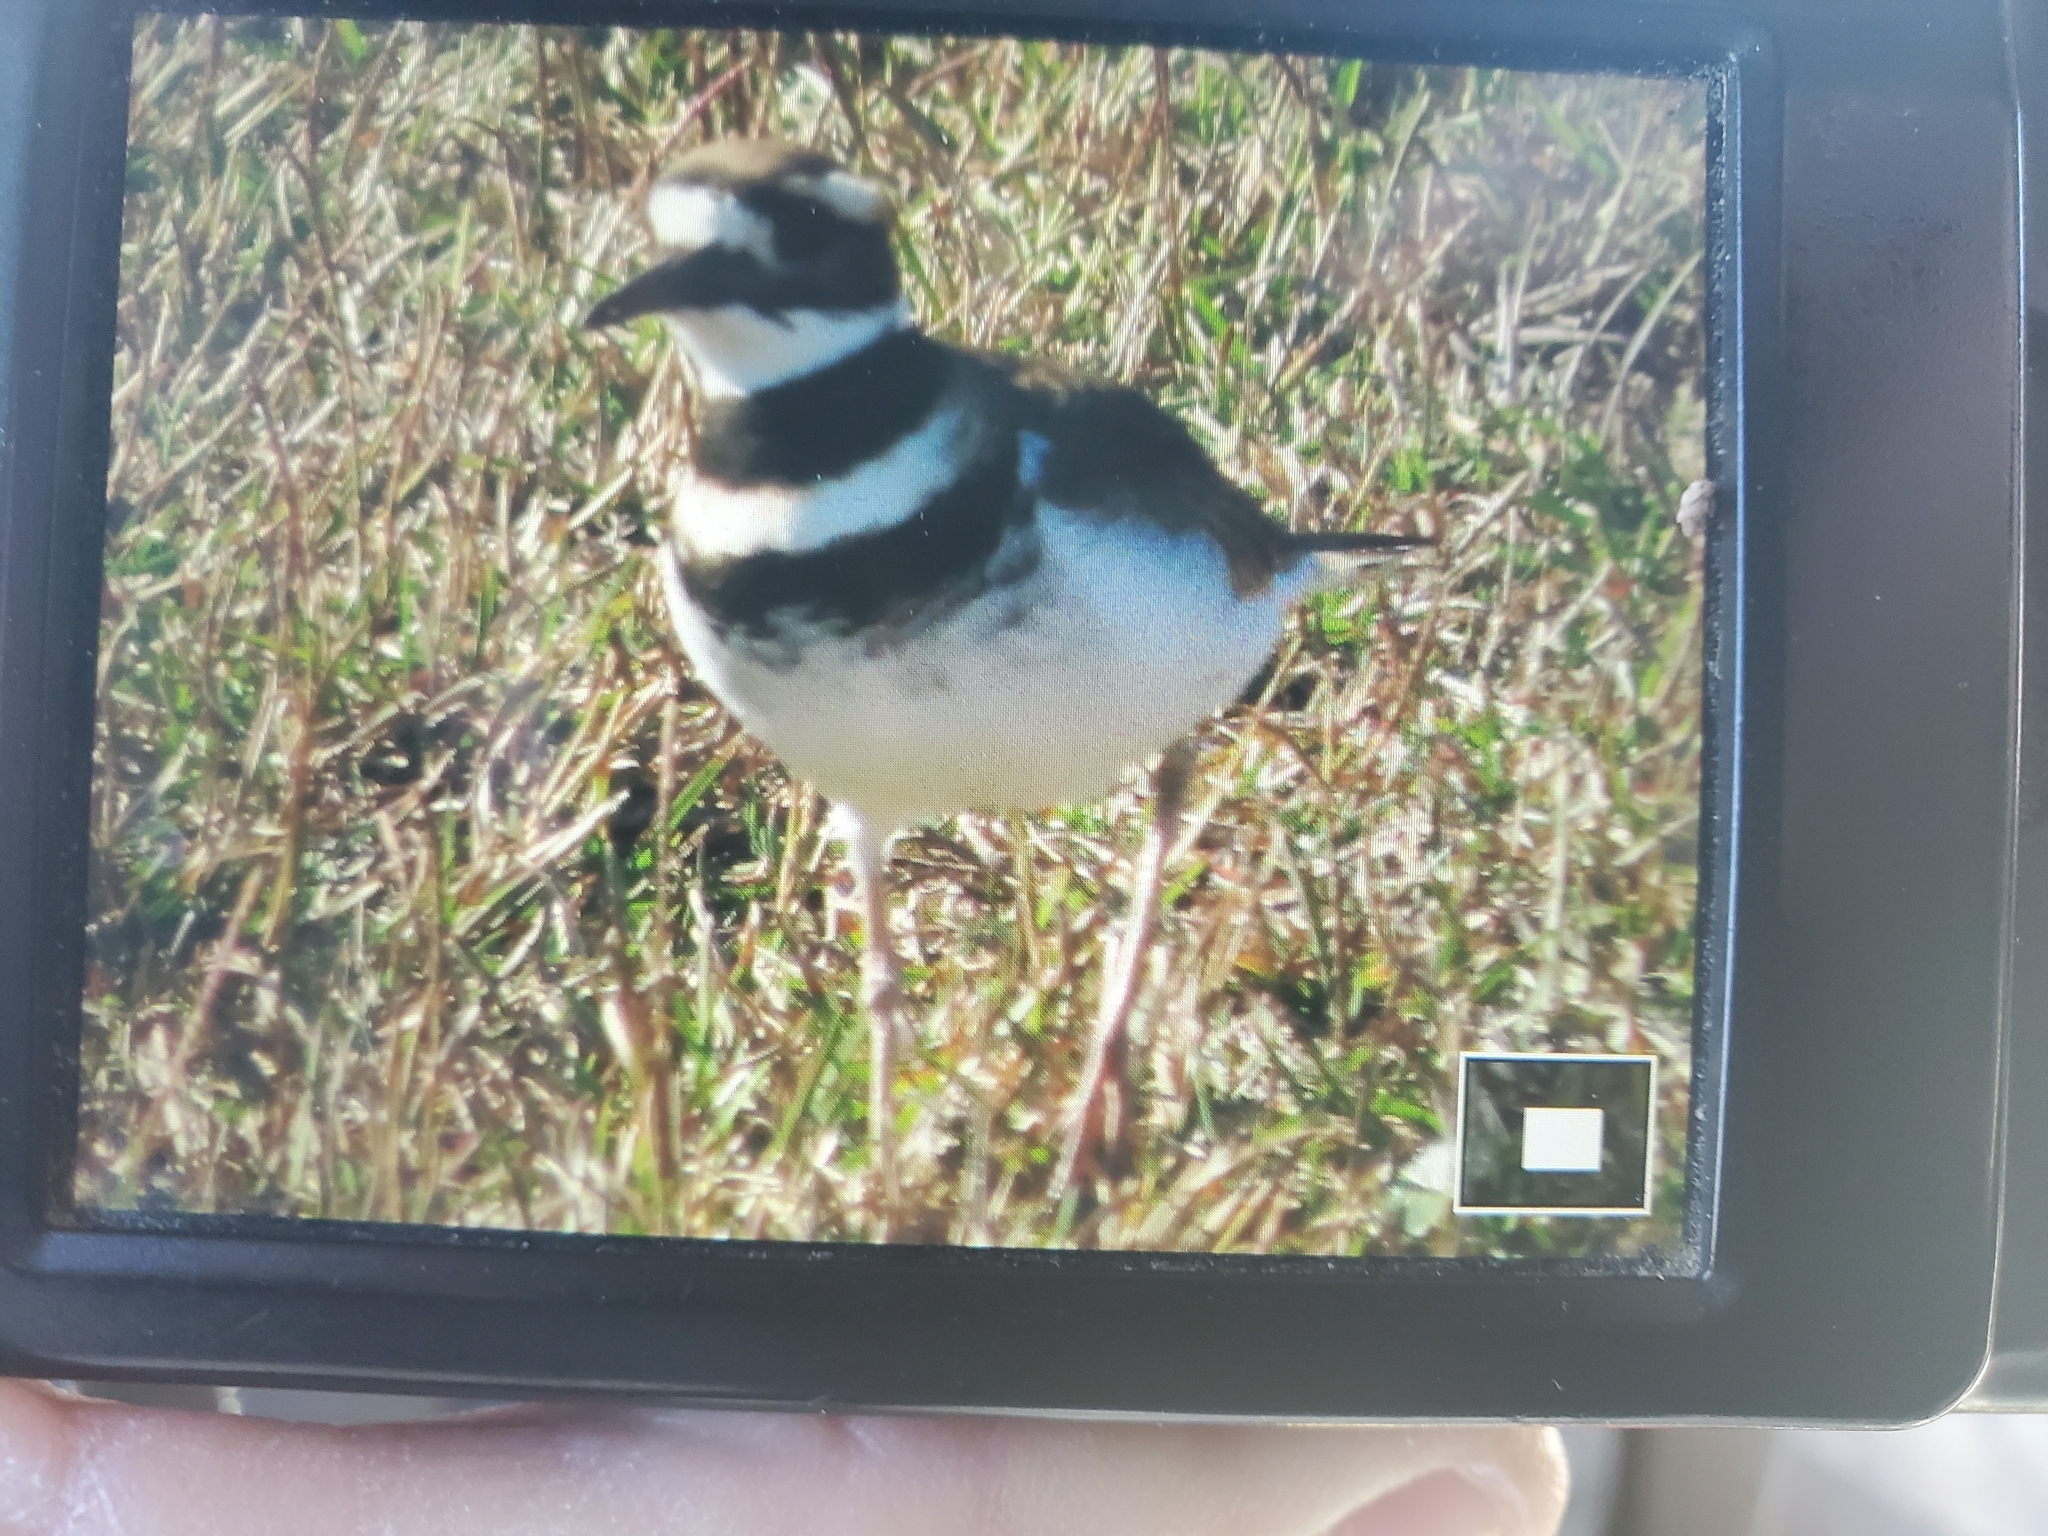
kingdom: Animalia
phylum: Chordata
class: Aves
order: Charadriiformes
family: Charadriidae
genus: Charadrius
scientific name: Charadrius vociferus
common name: Killdeer
